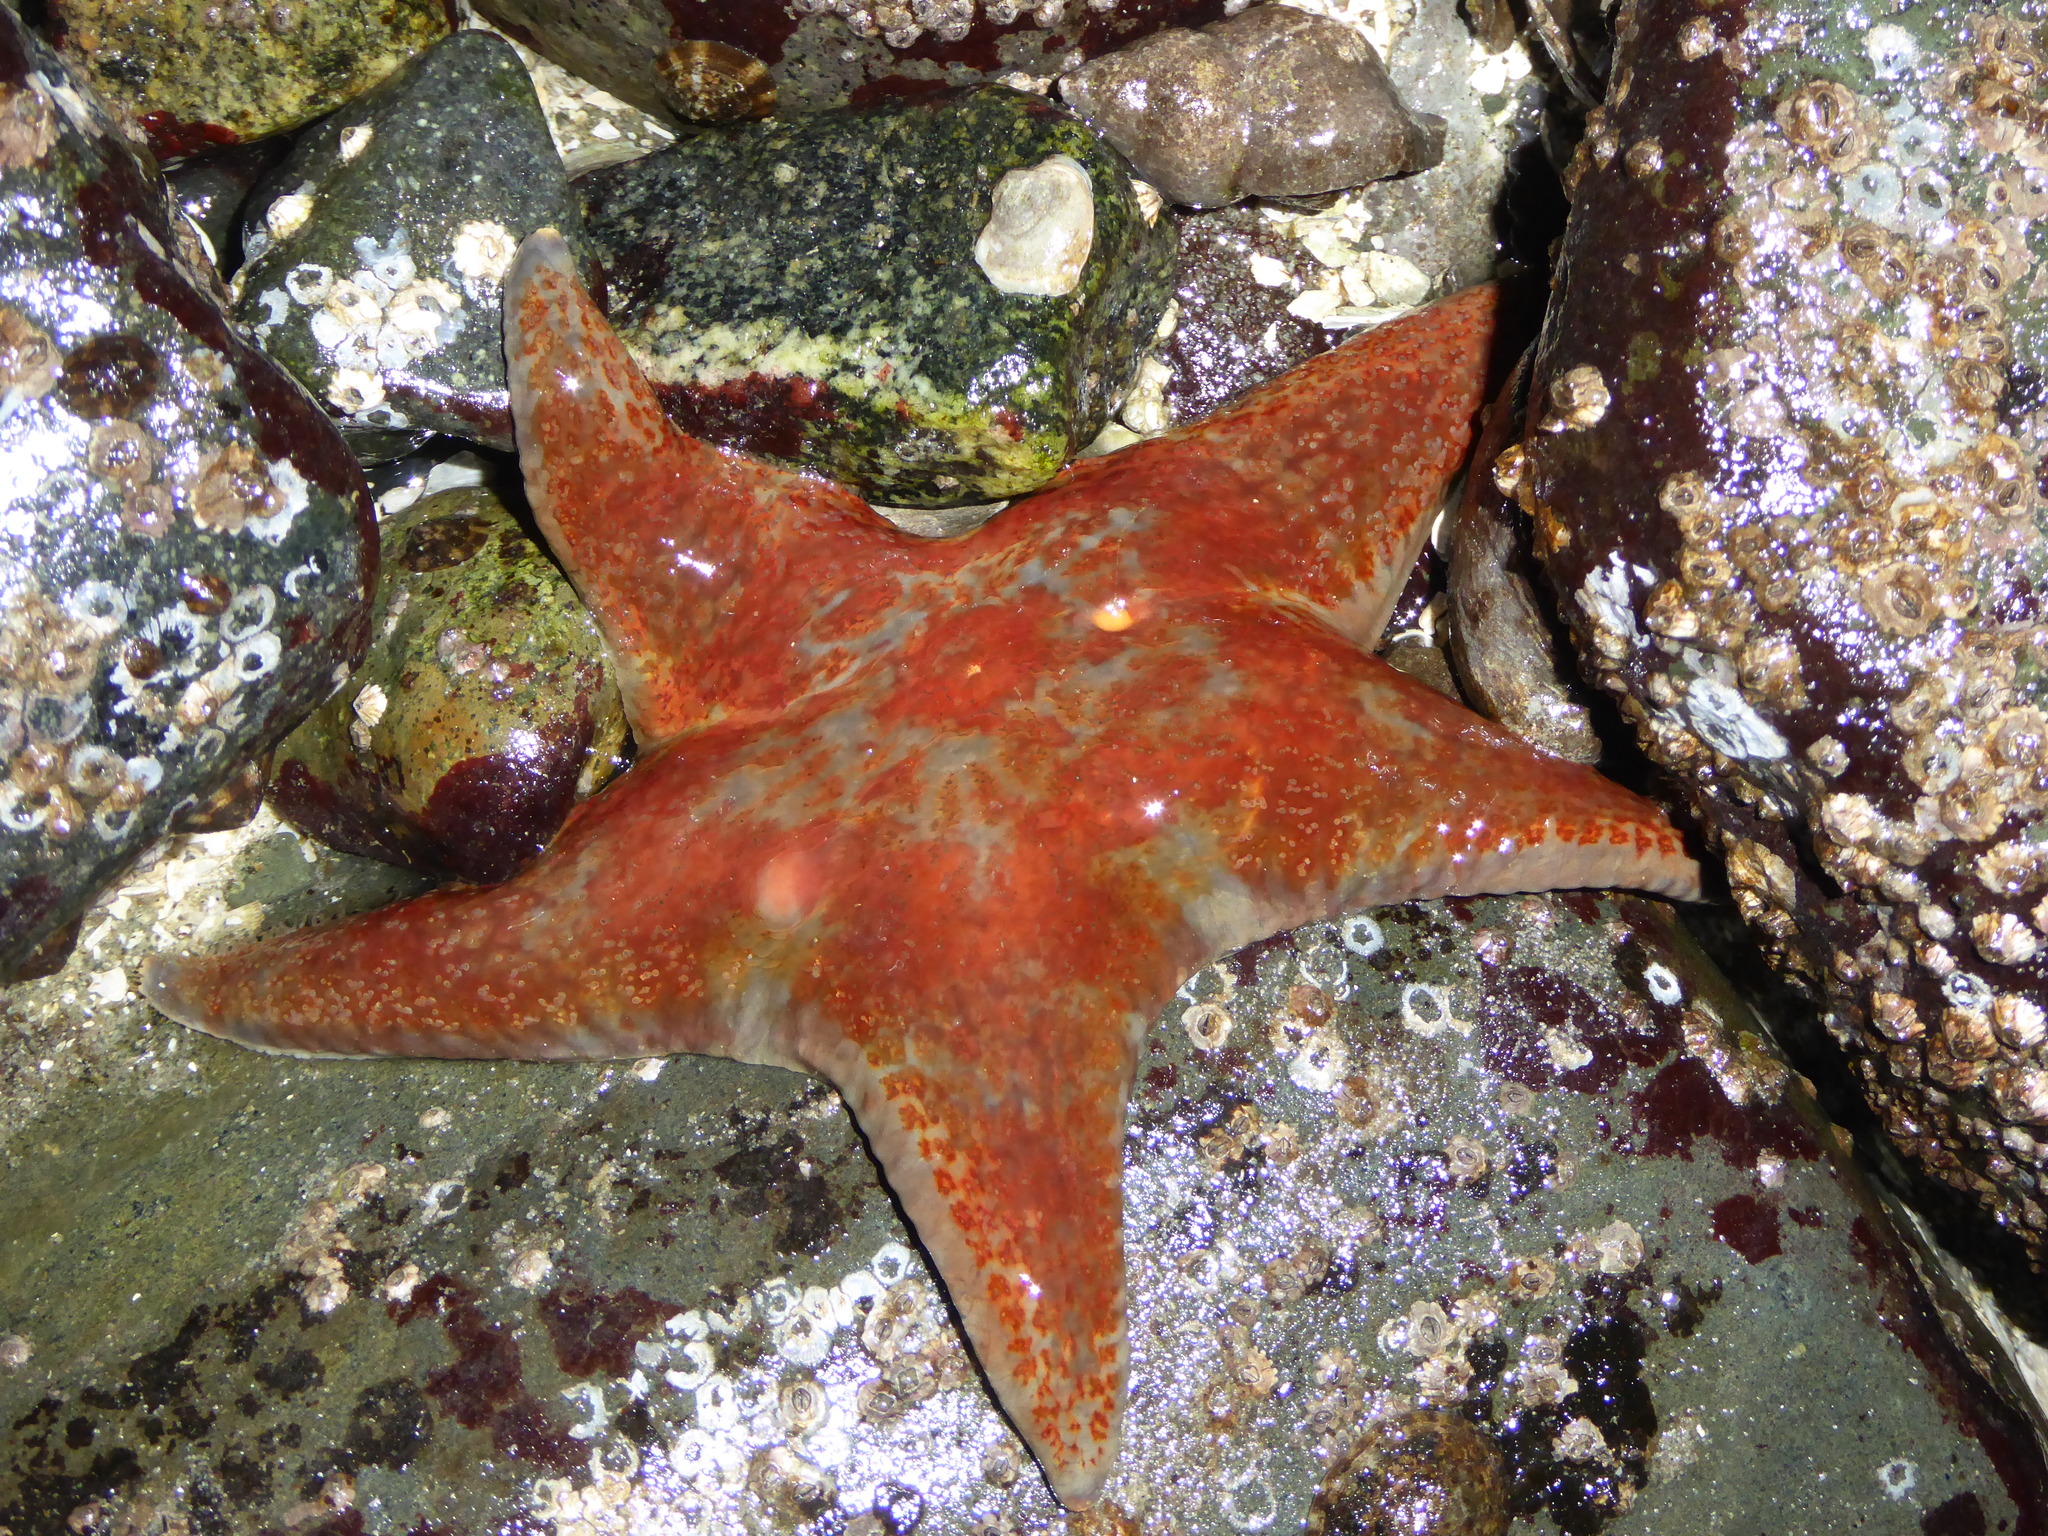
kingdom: Animalia
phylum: Echinodermata
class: Asteroidea
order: Valvatida
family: Asteropseidae
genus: Dermasterias
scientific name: Dermasterias imbricata
